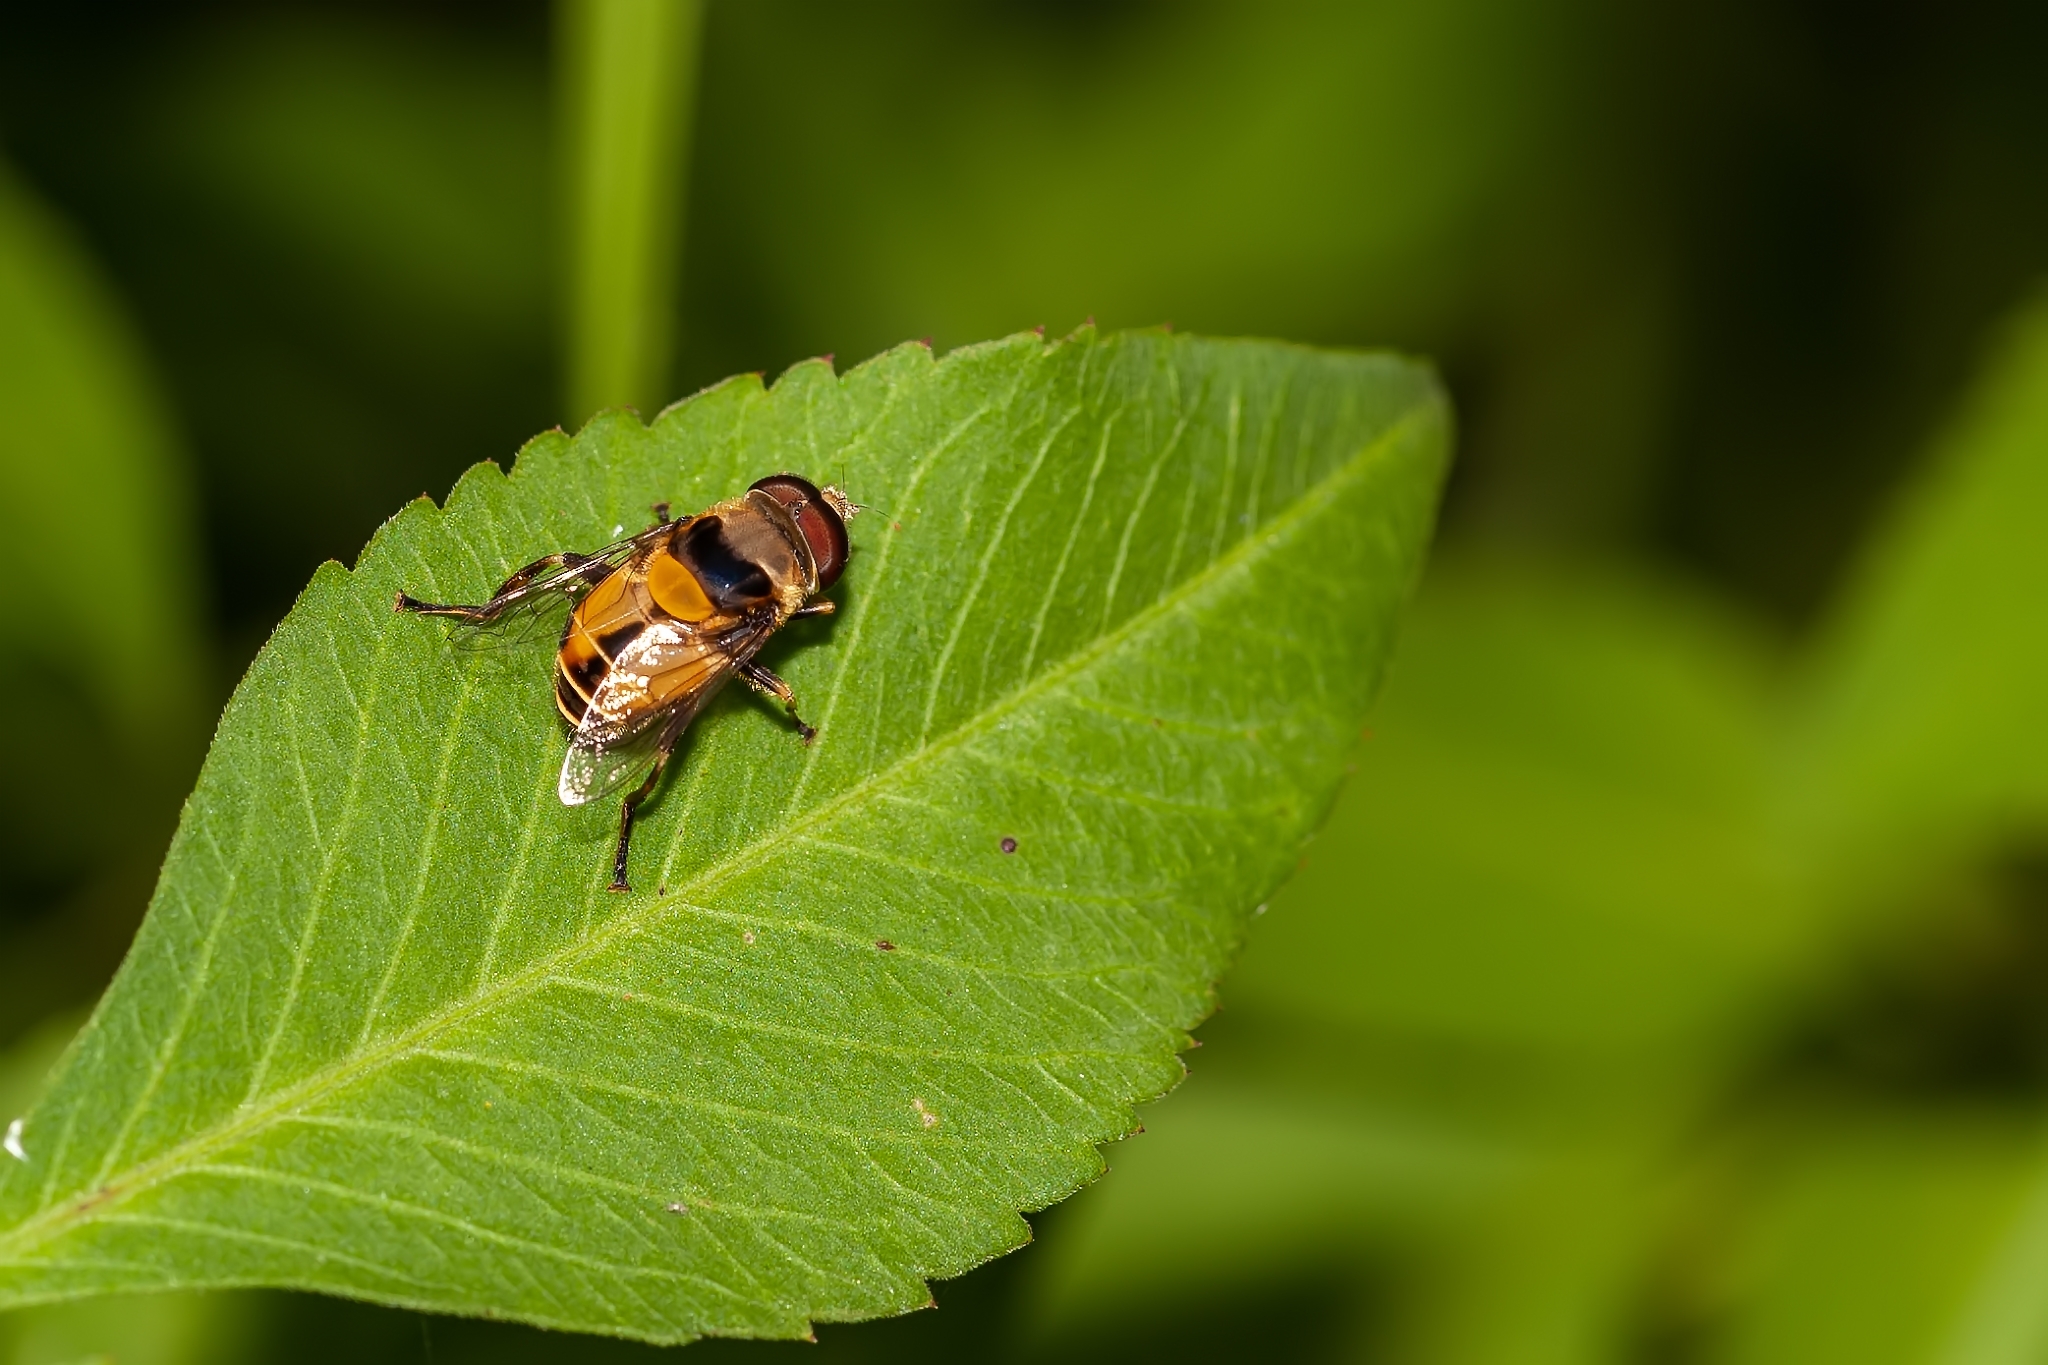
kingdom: Animalia
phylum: Arthropoda
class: Insecta
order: Diptera
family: Syrphidae
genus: Palpada
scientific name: Palpada pusilla
